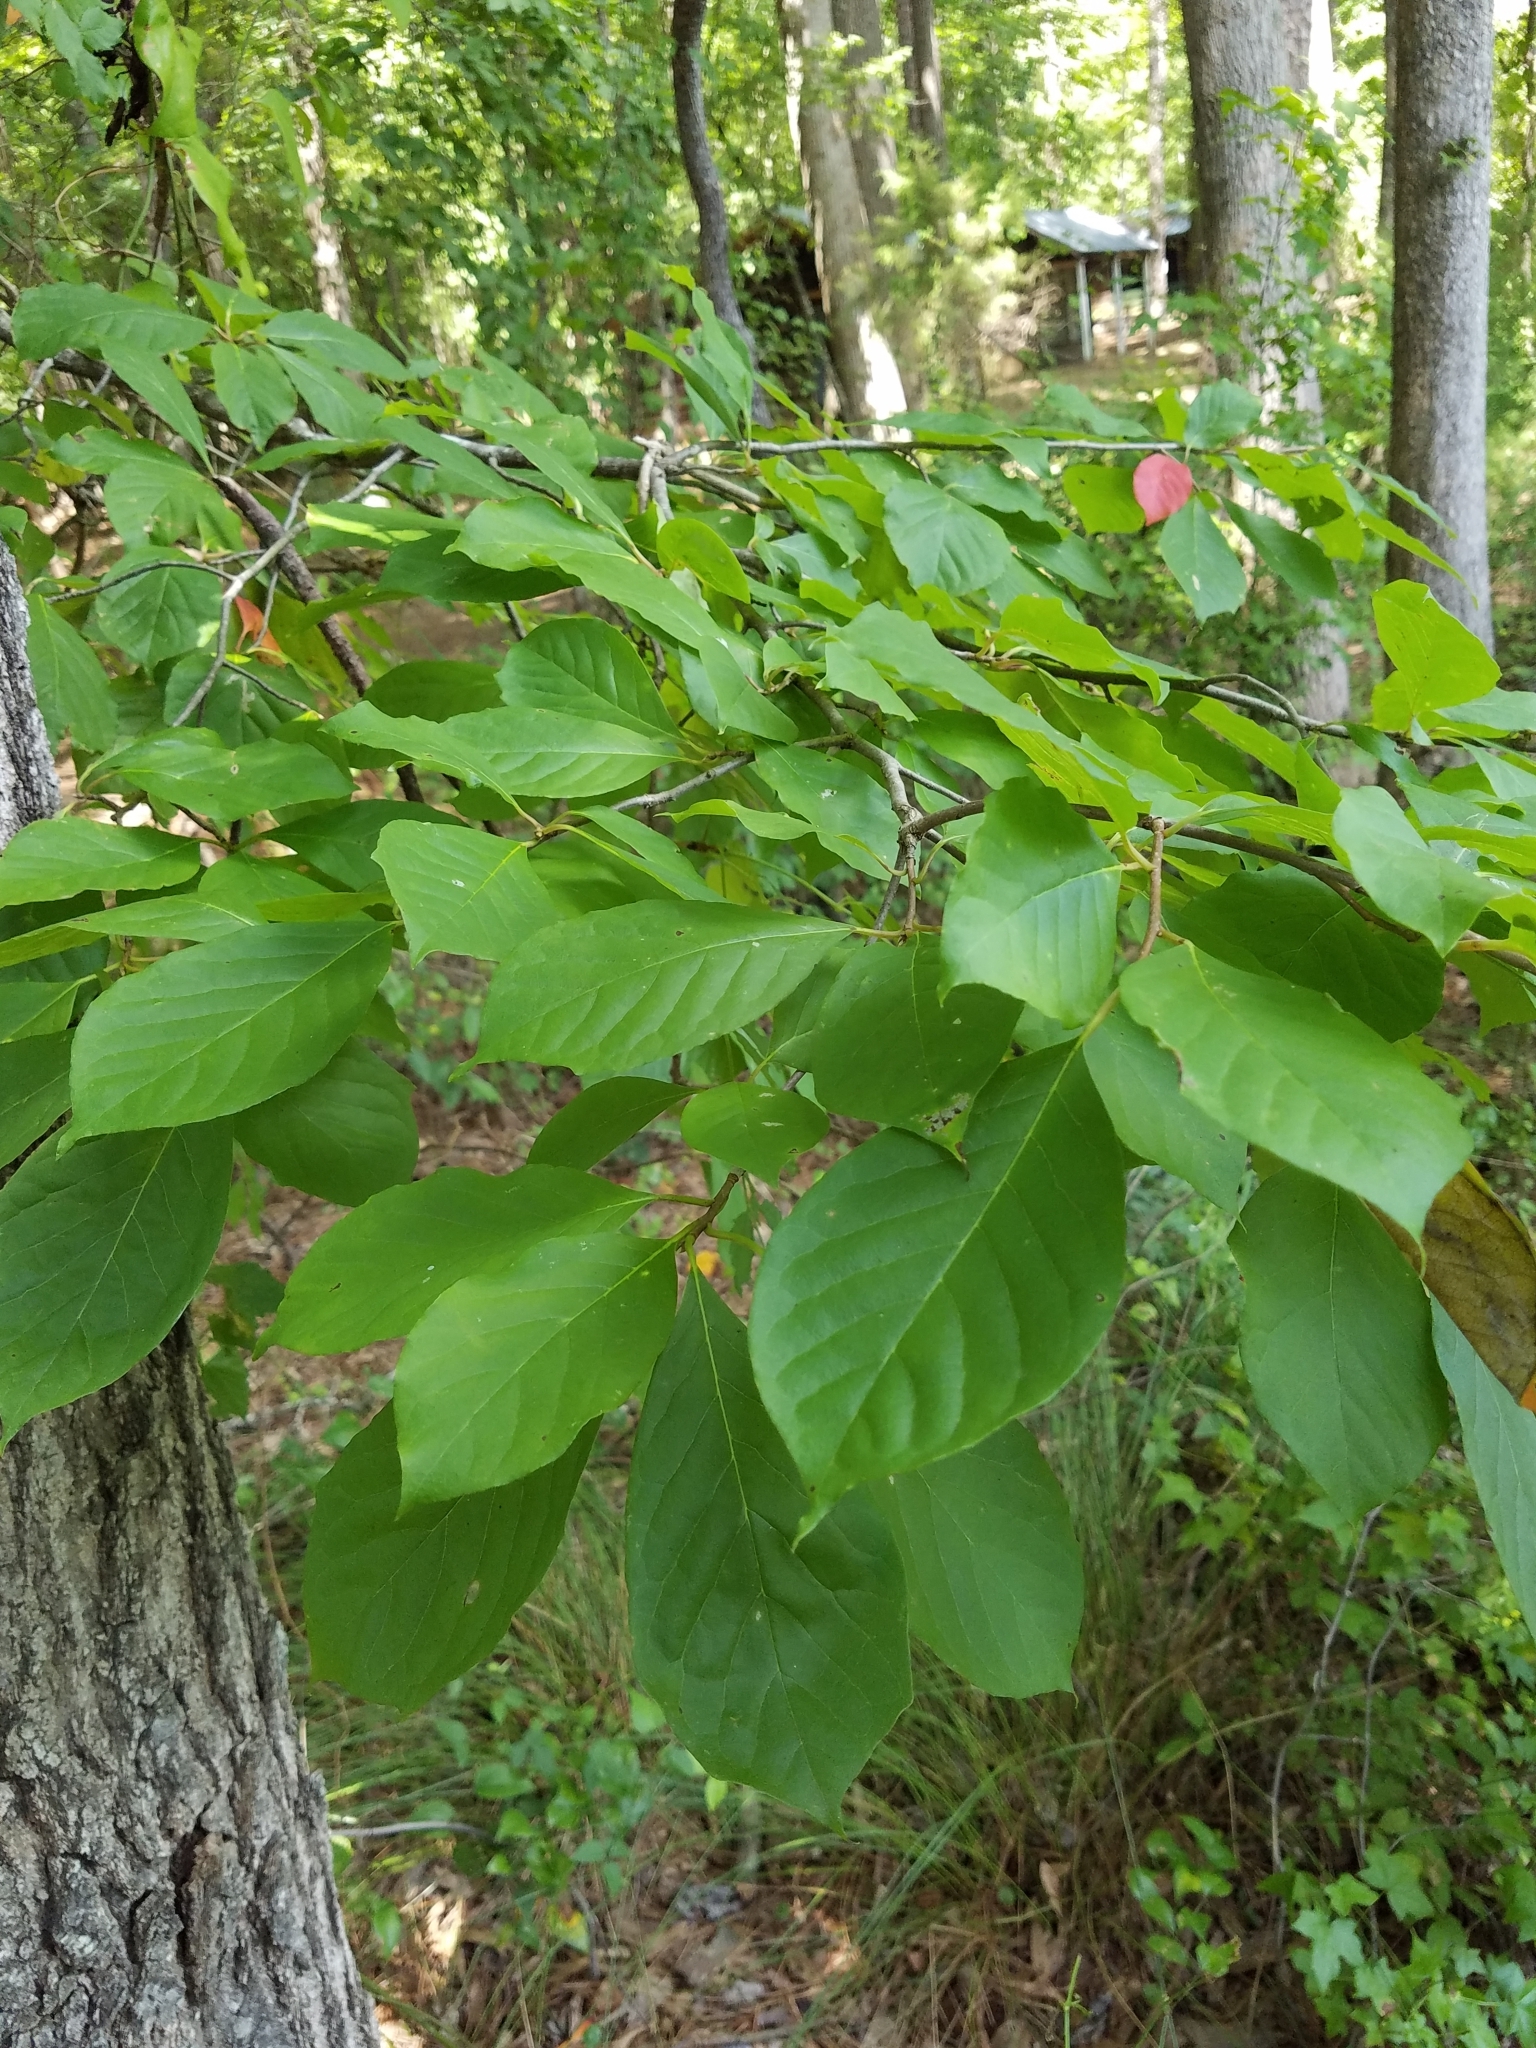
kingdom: Plantae
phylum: Tracheophyta
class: Magnoliopsida
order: Cornales
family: Nyssaceae
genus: Nyssa
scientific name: Nyssa sylvatica
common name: Black tupelo
